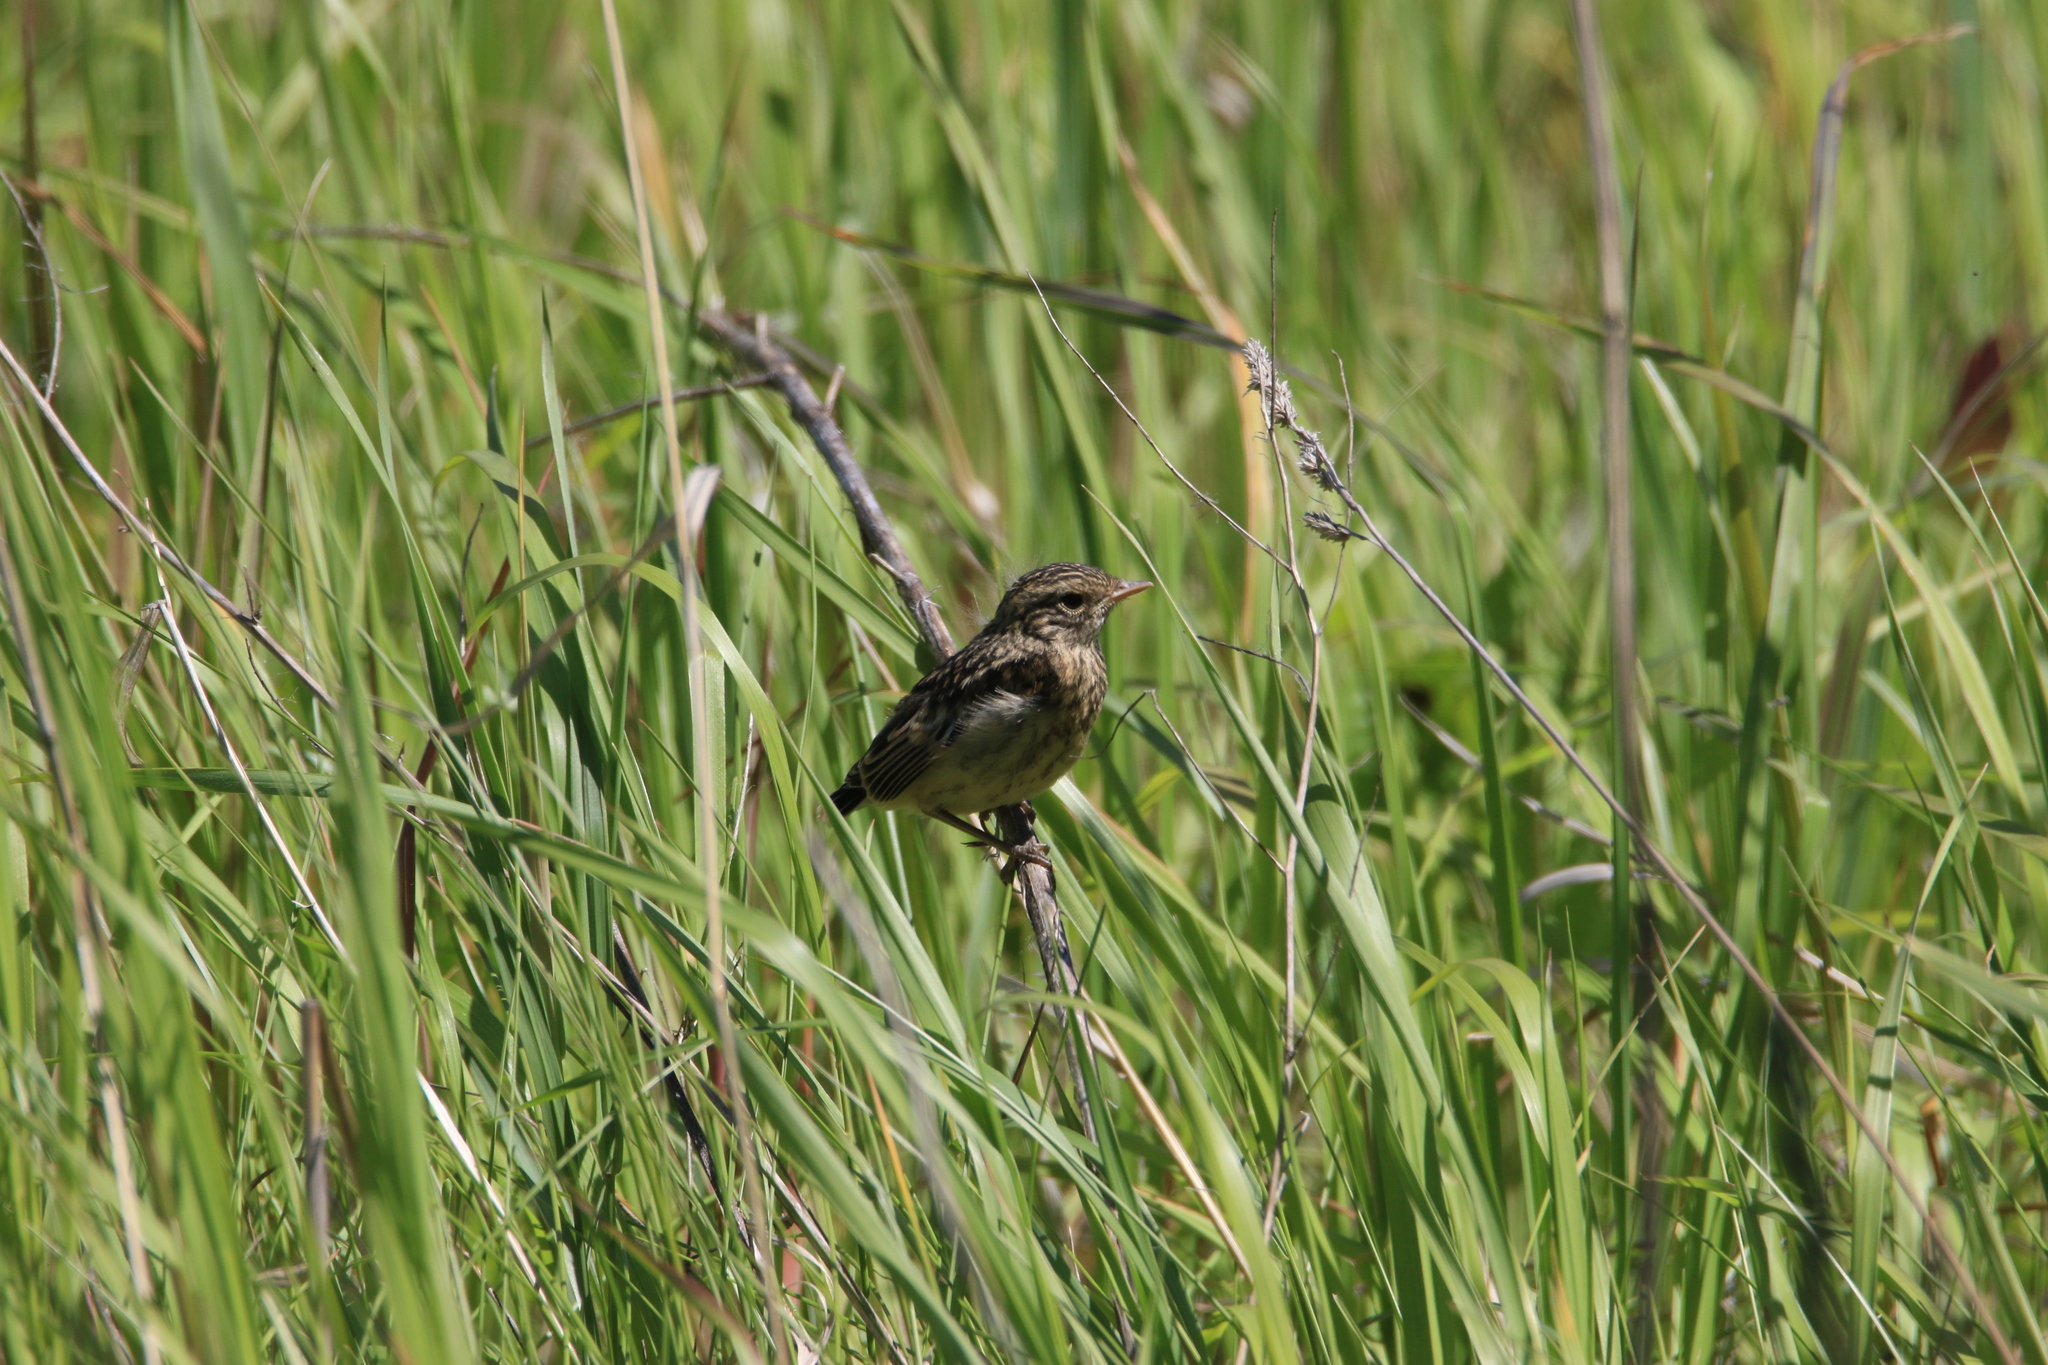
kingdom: Animalia
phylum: Chordata
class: Aves
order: Passeriformes
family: Muscicapidae
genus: Saxicola
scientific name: Saxicola maurus
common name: Siberian stonechat
